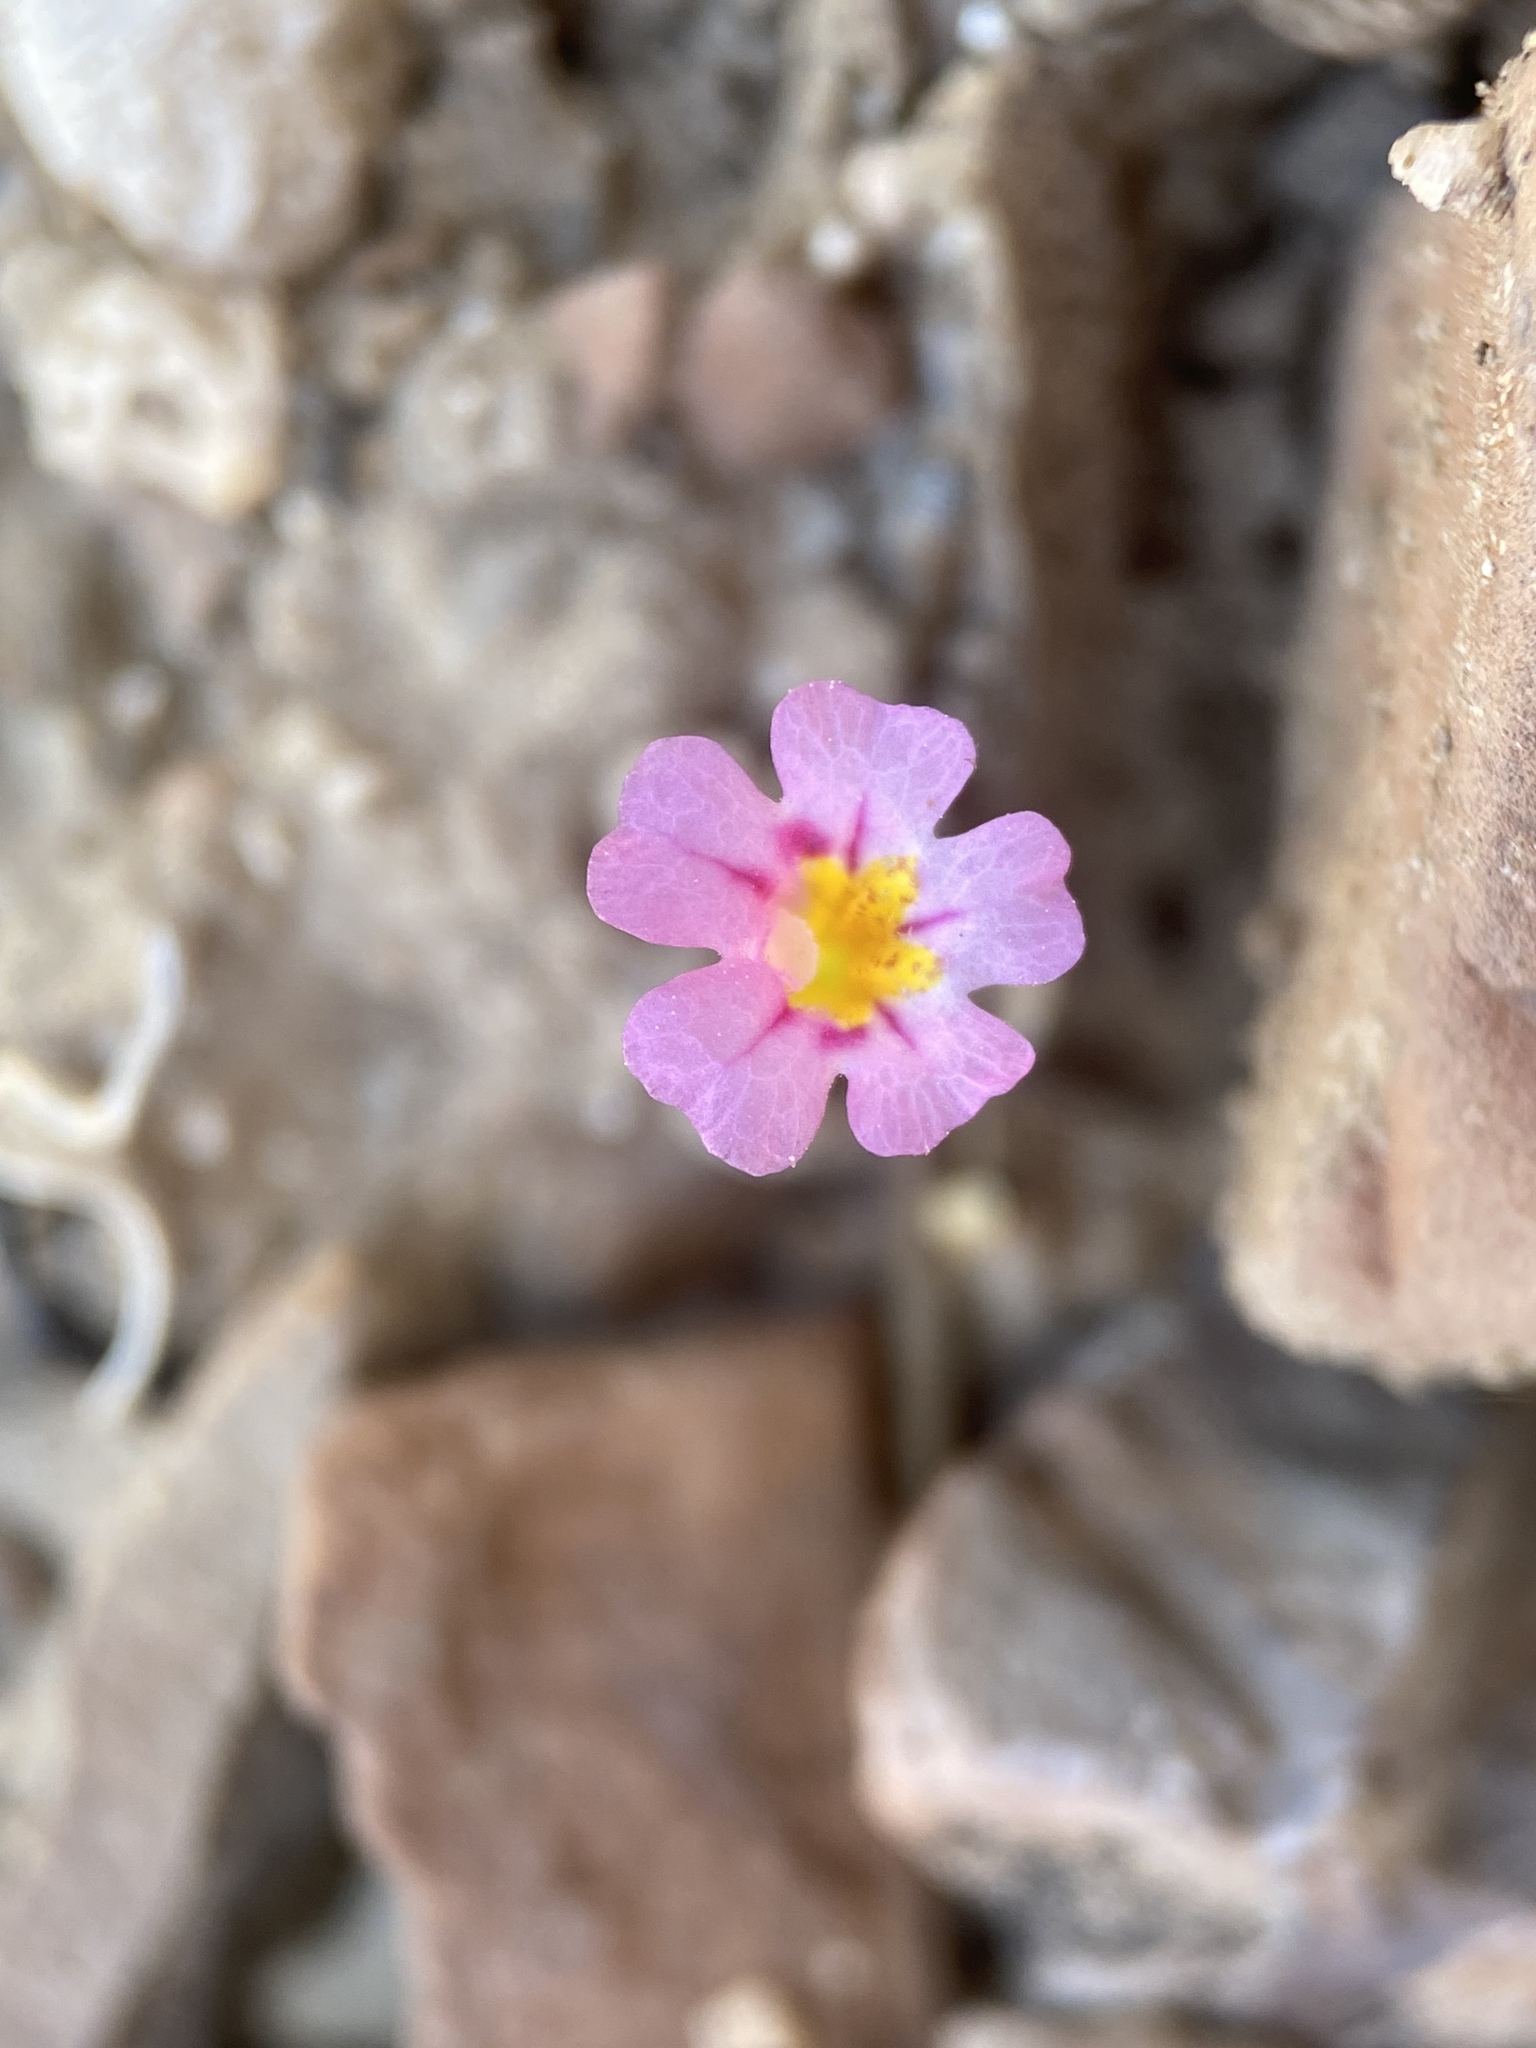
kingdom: Plantae
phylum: Tracheophyta
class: Magnoliopsida
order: Lamiales
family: Phrymaceae
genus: Diplacus
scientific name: Diplacus bigelovii
